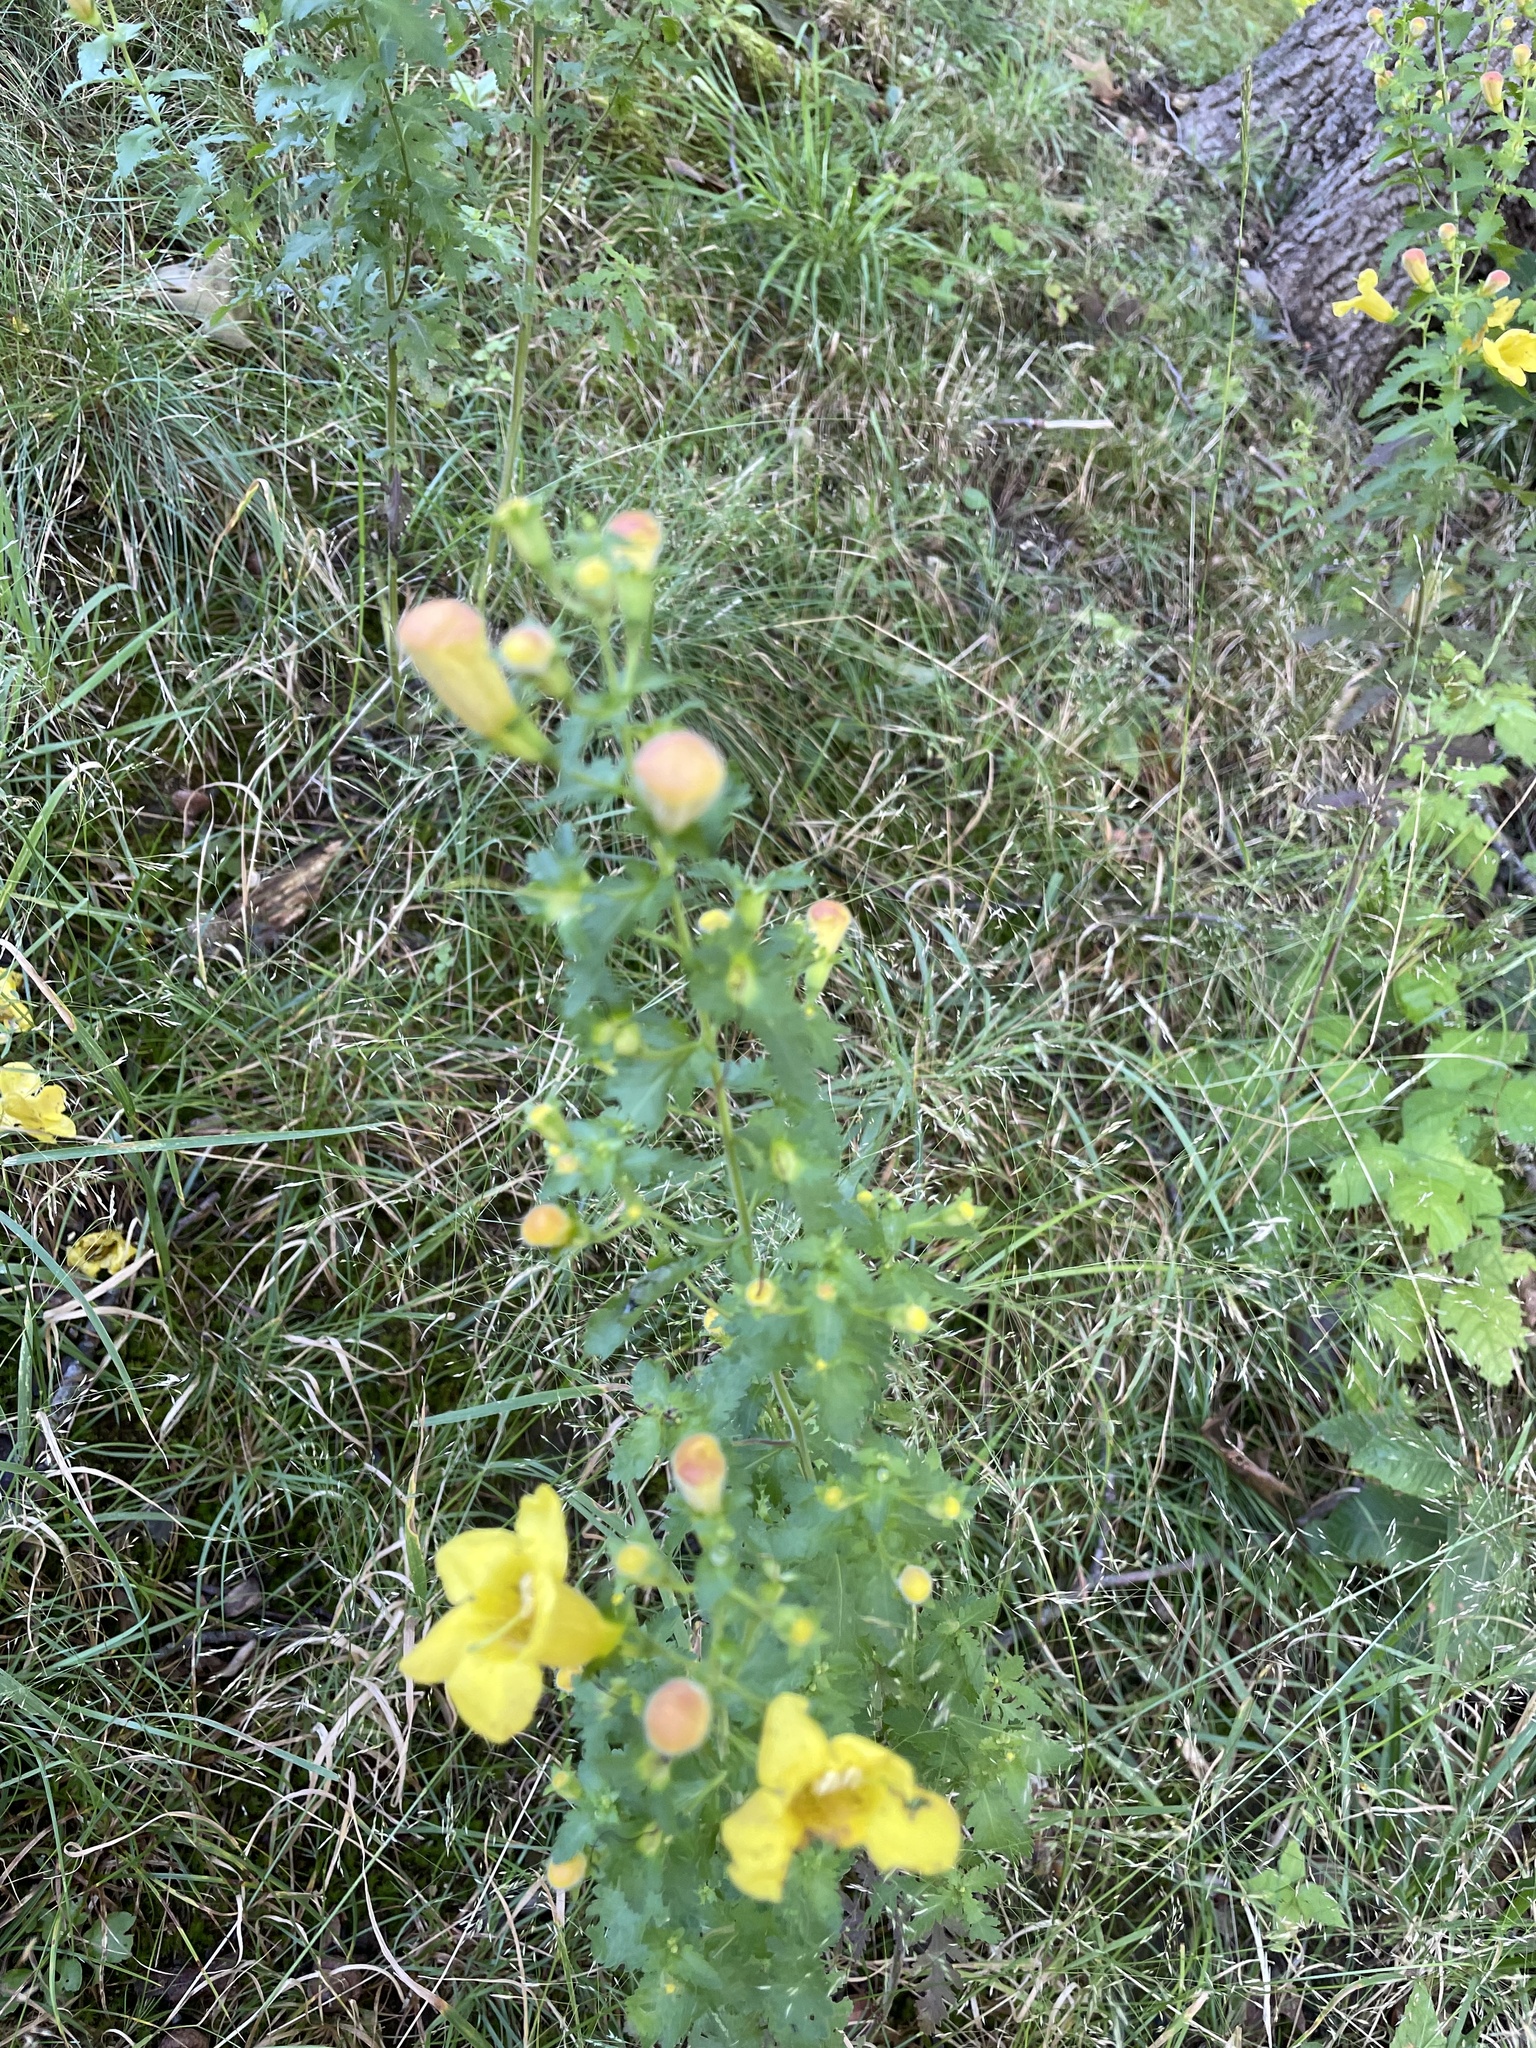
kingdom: Plantae
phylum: Tracheophyta
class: Magnoliopsida
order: Lamiales
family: Orobanchaceae
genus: Aureolaria
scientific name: Aureolaria pedicularia
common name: Annual false foxglove
